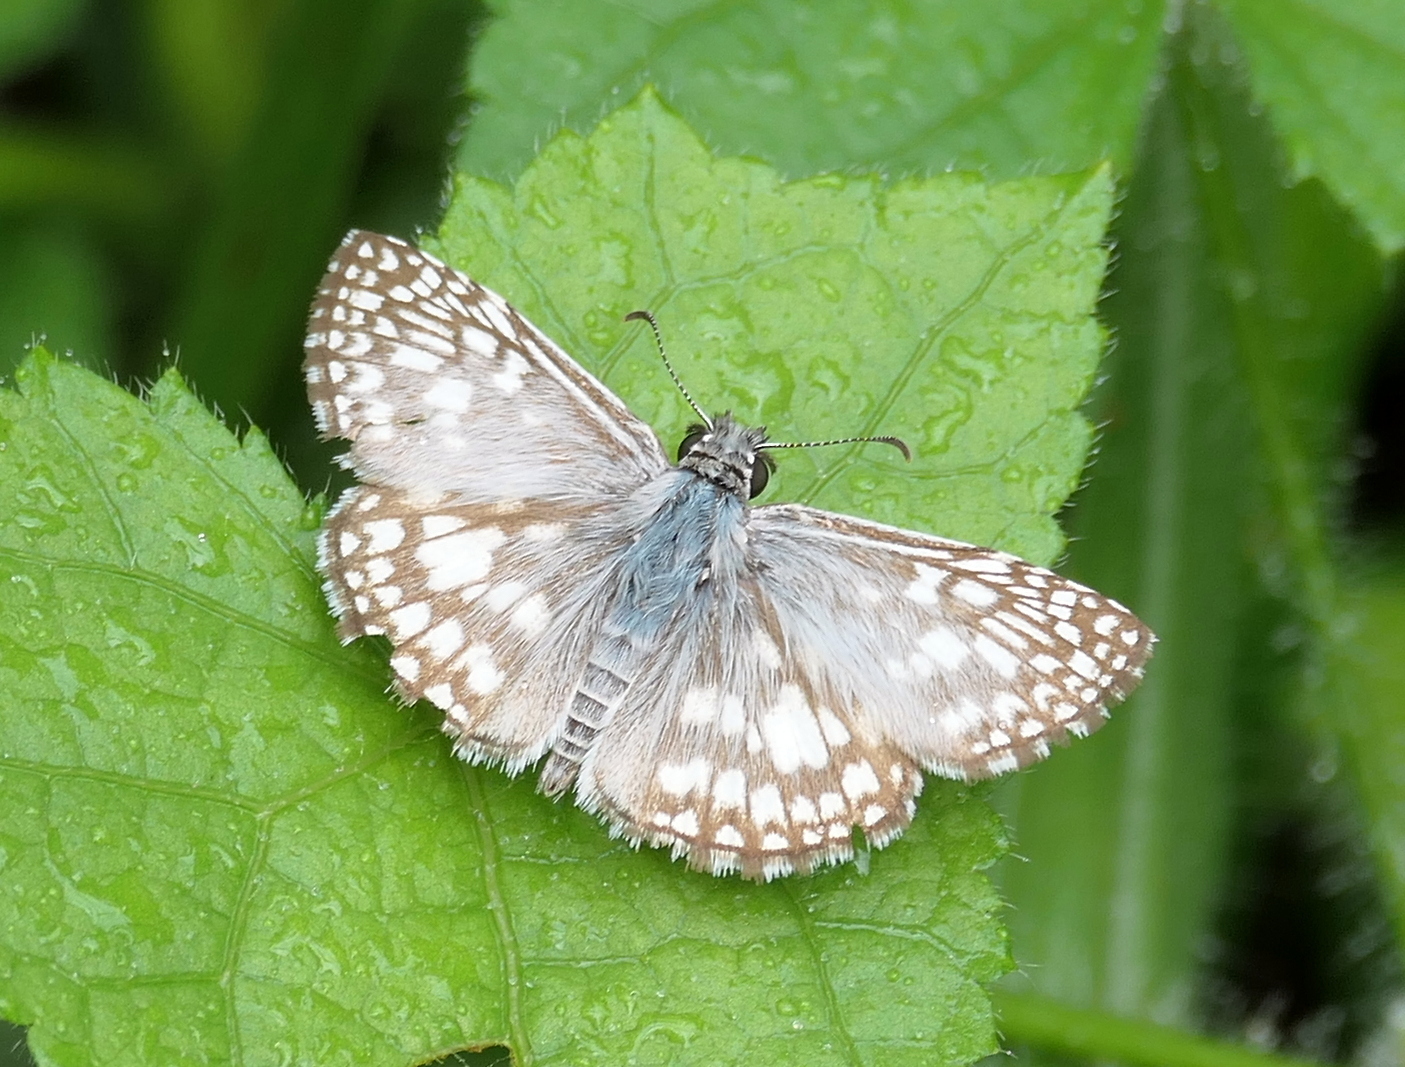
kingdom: Animalia
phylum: Arthropoda
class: Insecta
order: Lepidoptera
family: Hesperiidae
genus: Pyrgus
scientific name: Pyrgus oileus
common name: Tropical checkered-skipper
